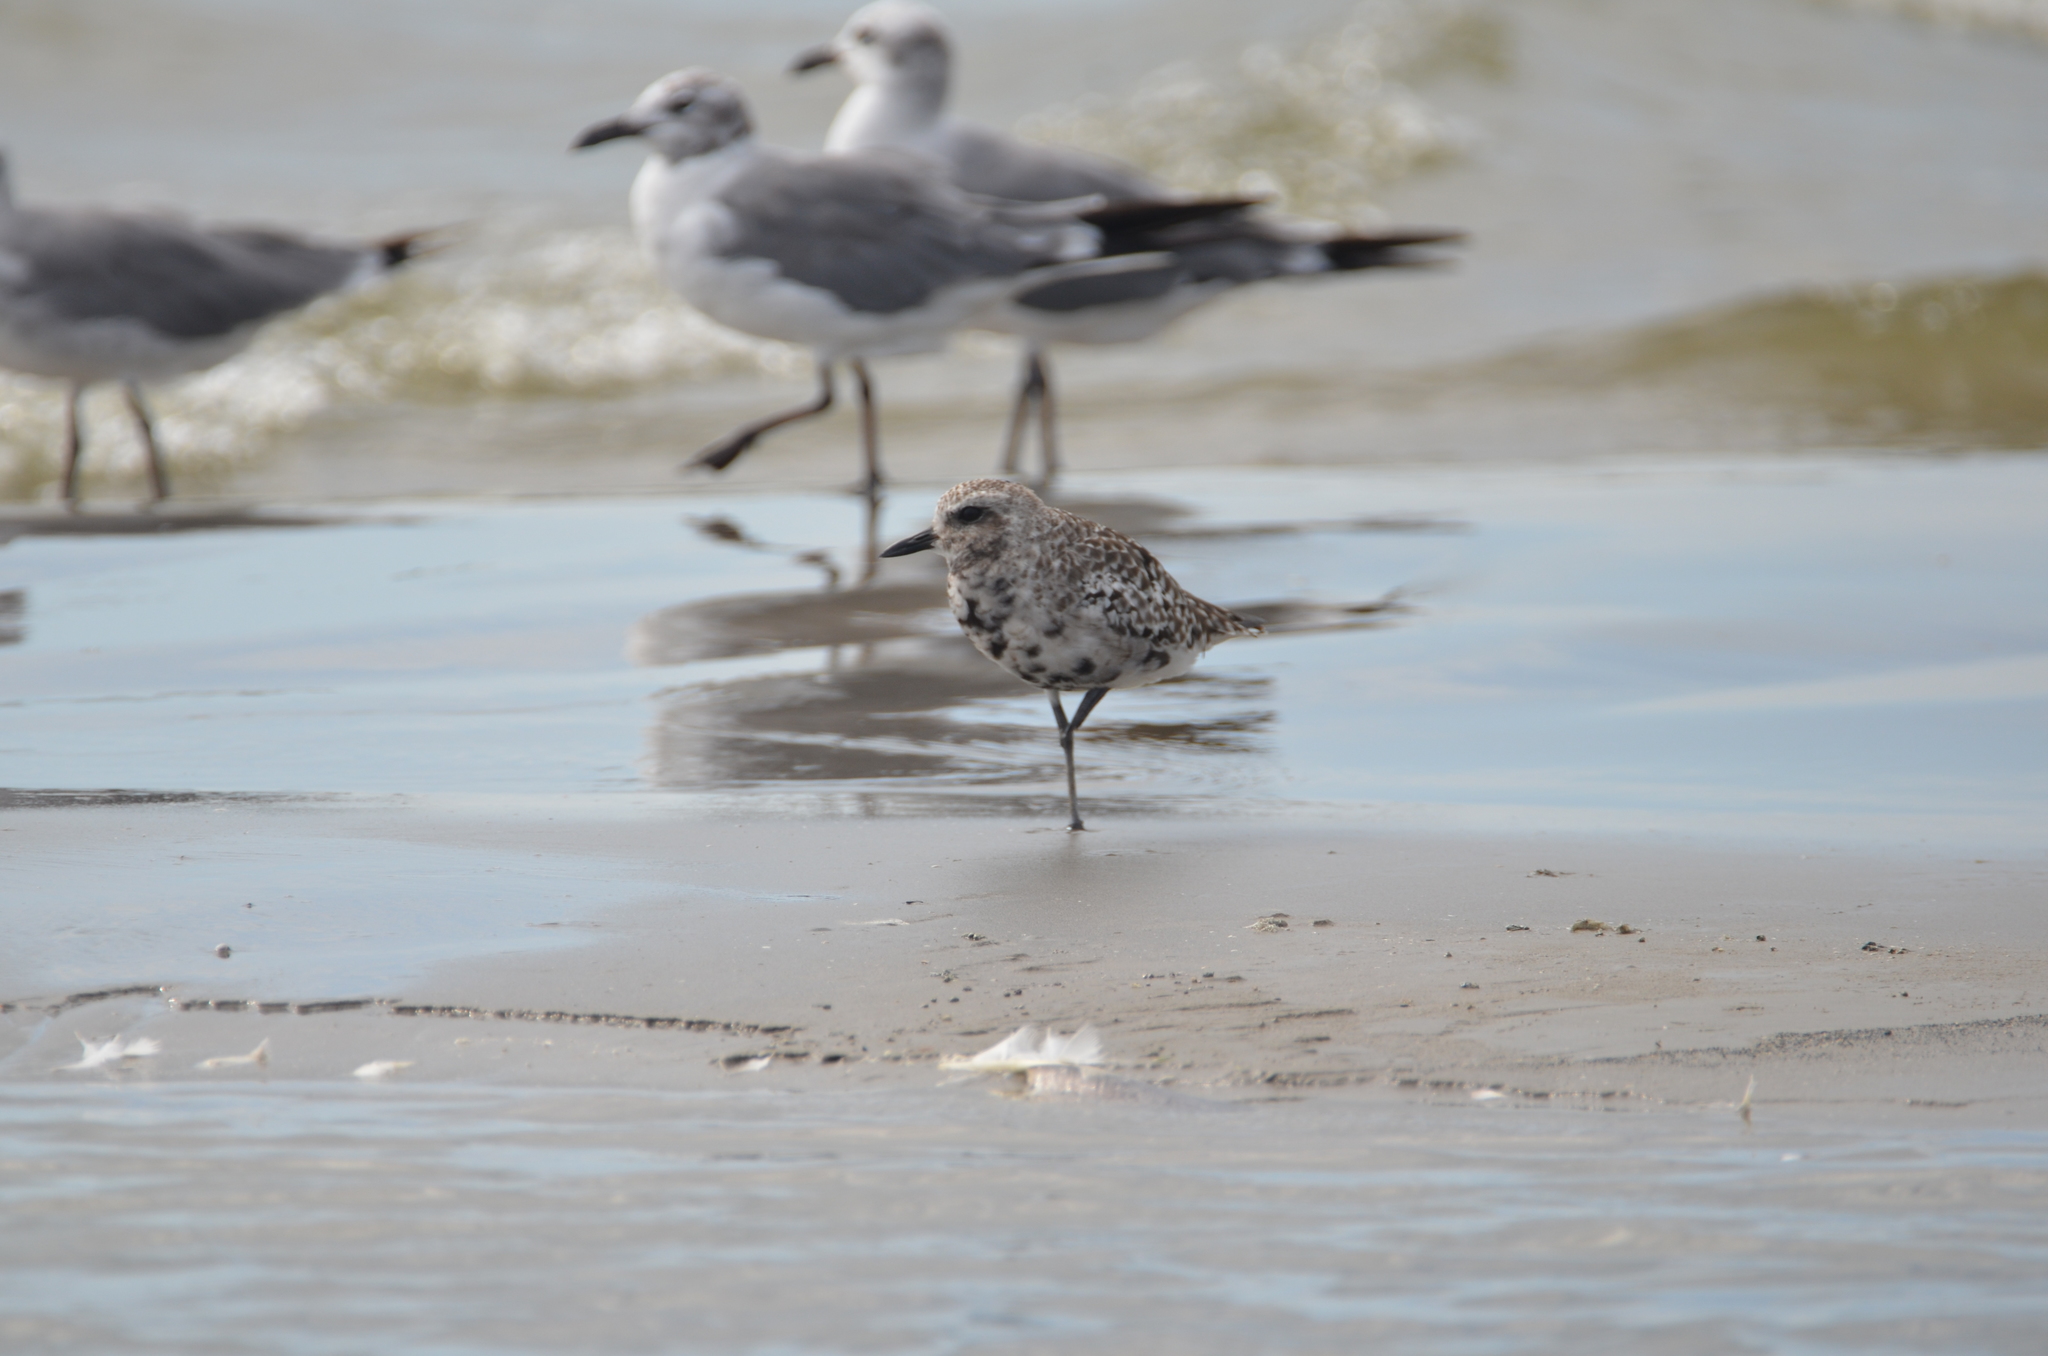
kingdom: Animalia
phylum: Chordata
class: Aves
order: Charadriiformes
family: Charadriidae
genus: Pluvialis
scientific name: Pluvialis squatarola
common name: Grey plover
